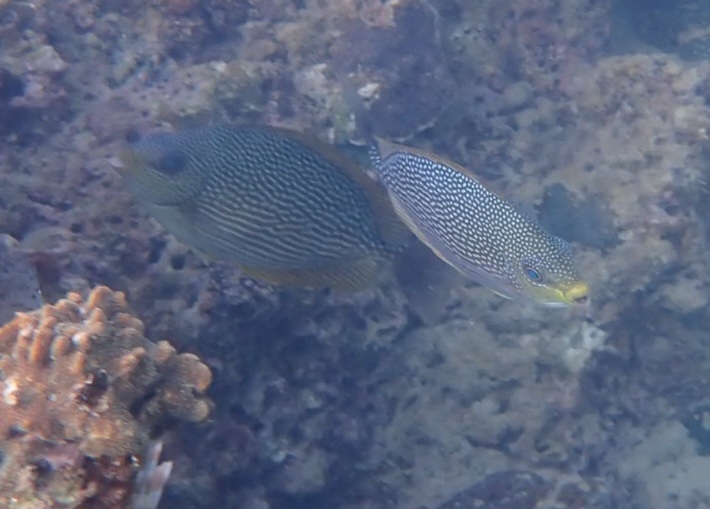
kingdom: Animalia
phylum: Chordata
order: Perciformes
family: Siganidae
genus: Siganus
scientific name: Siganus javus
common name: Java rabbitfish
